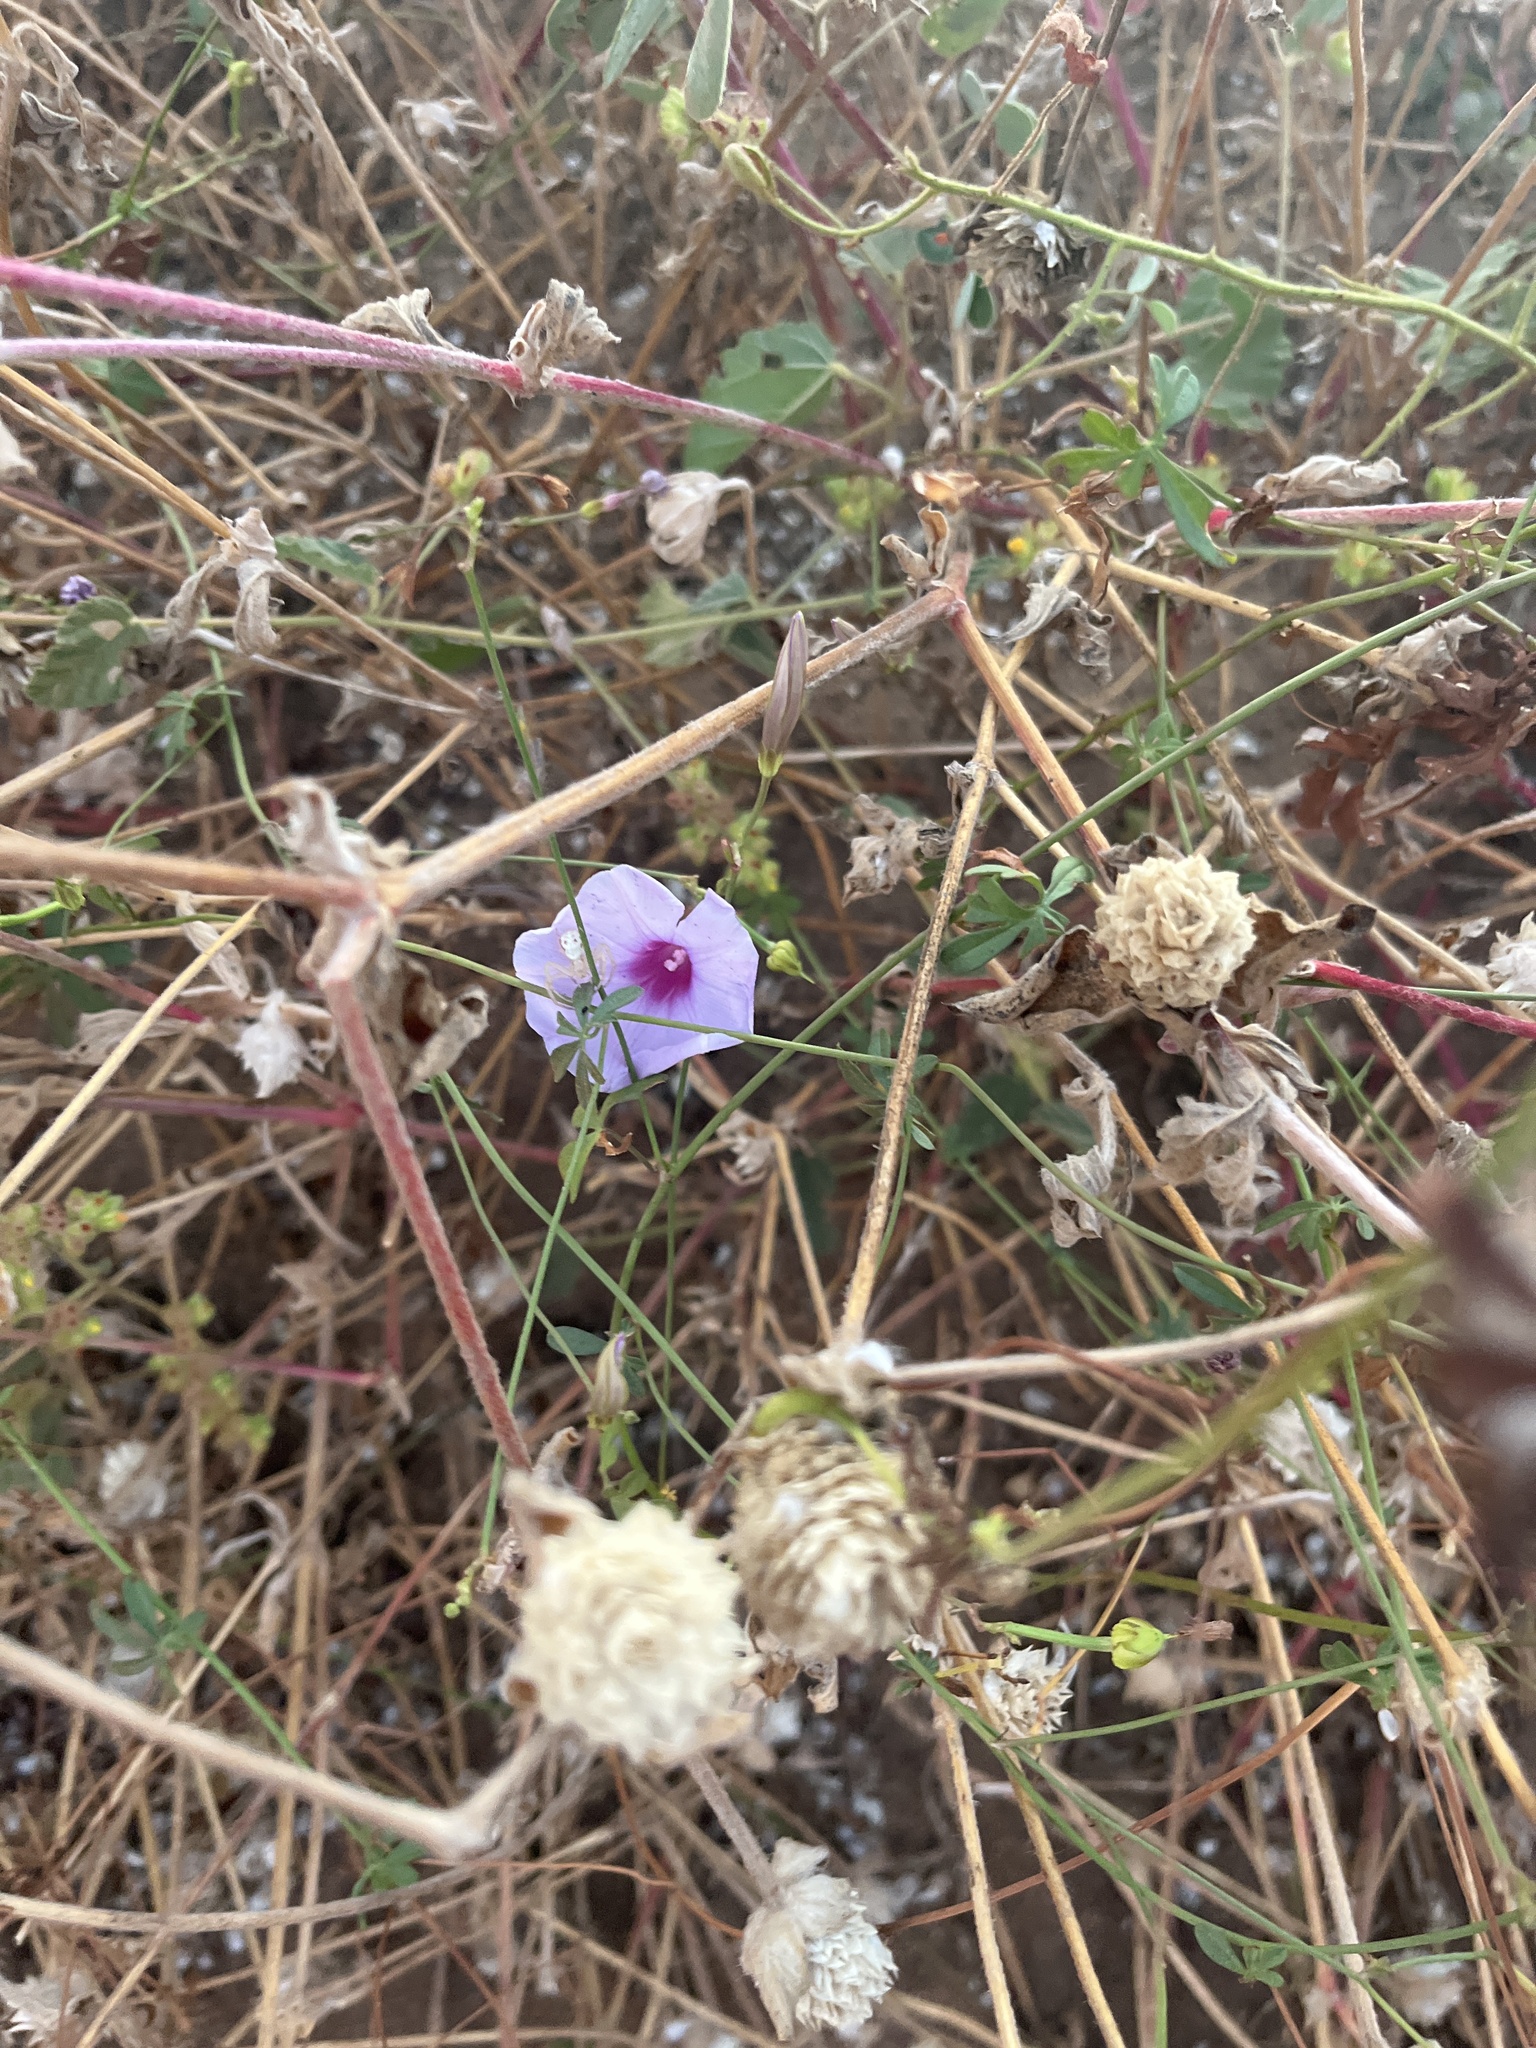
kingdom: Plantae
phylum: Tracheophyta
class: Magnoliopsida
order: Solanales
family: Convolvulaceae
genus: Ipomoea
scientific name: Ipomoea ternifolia
